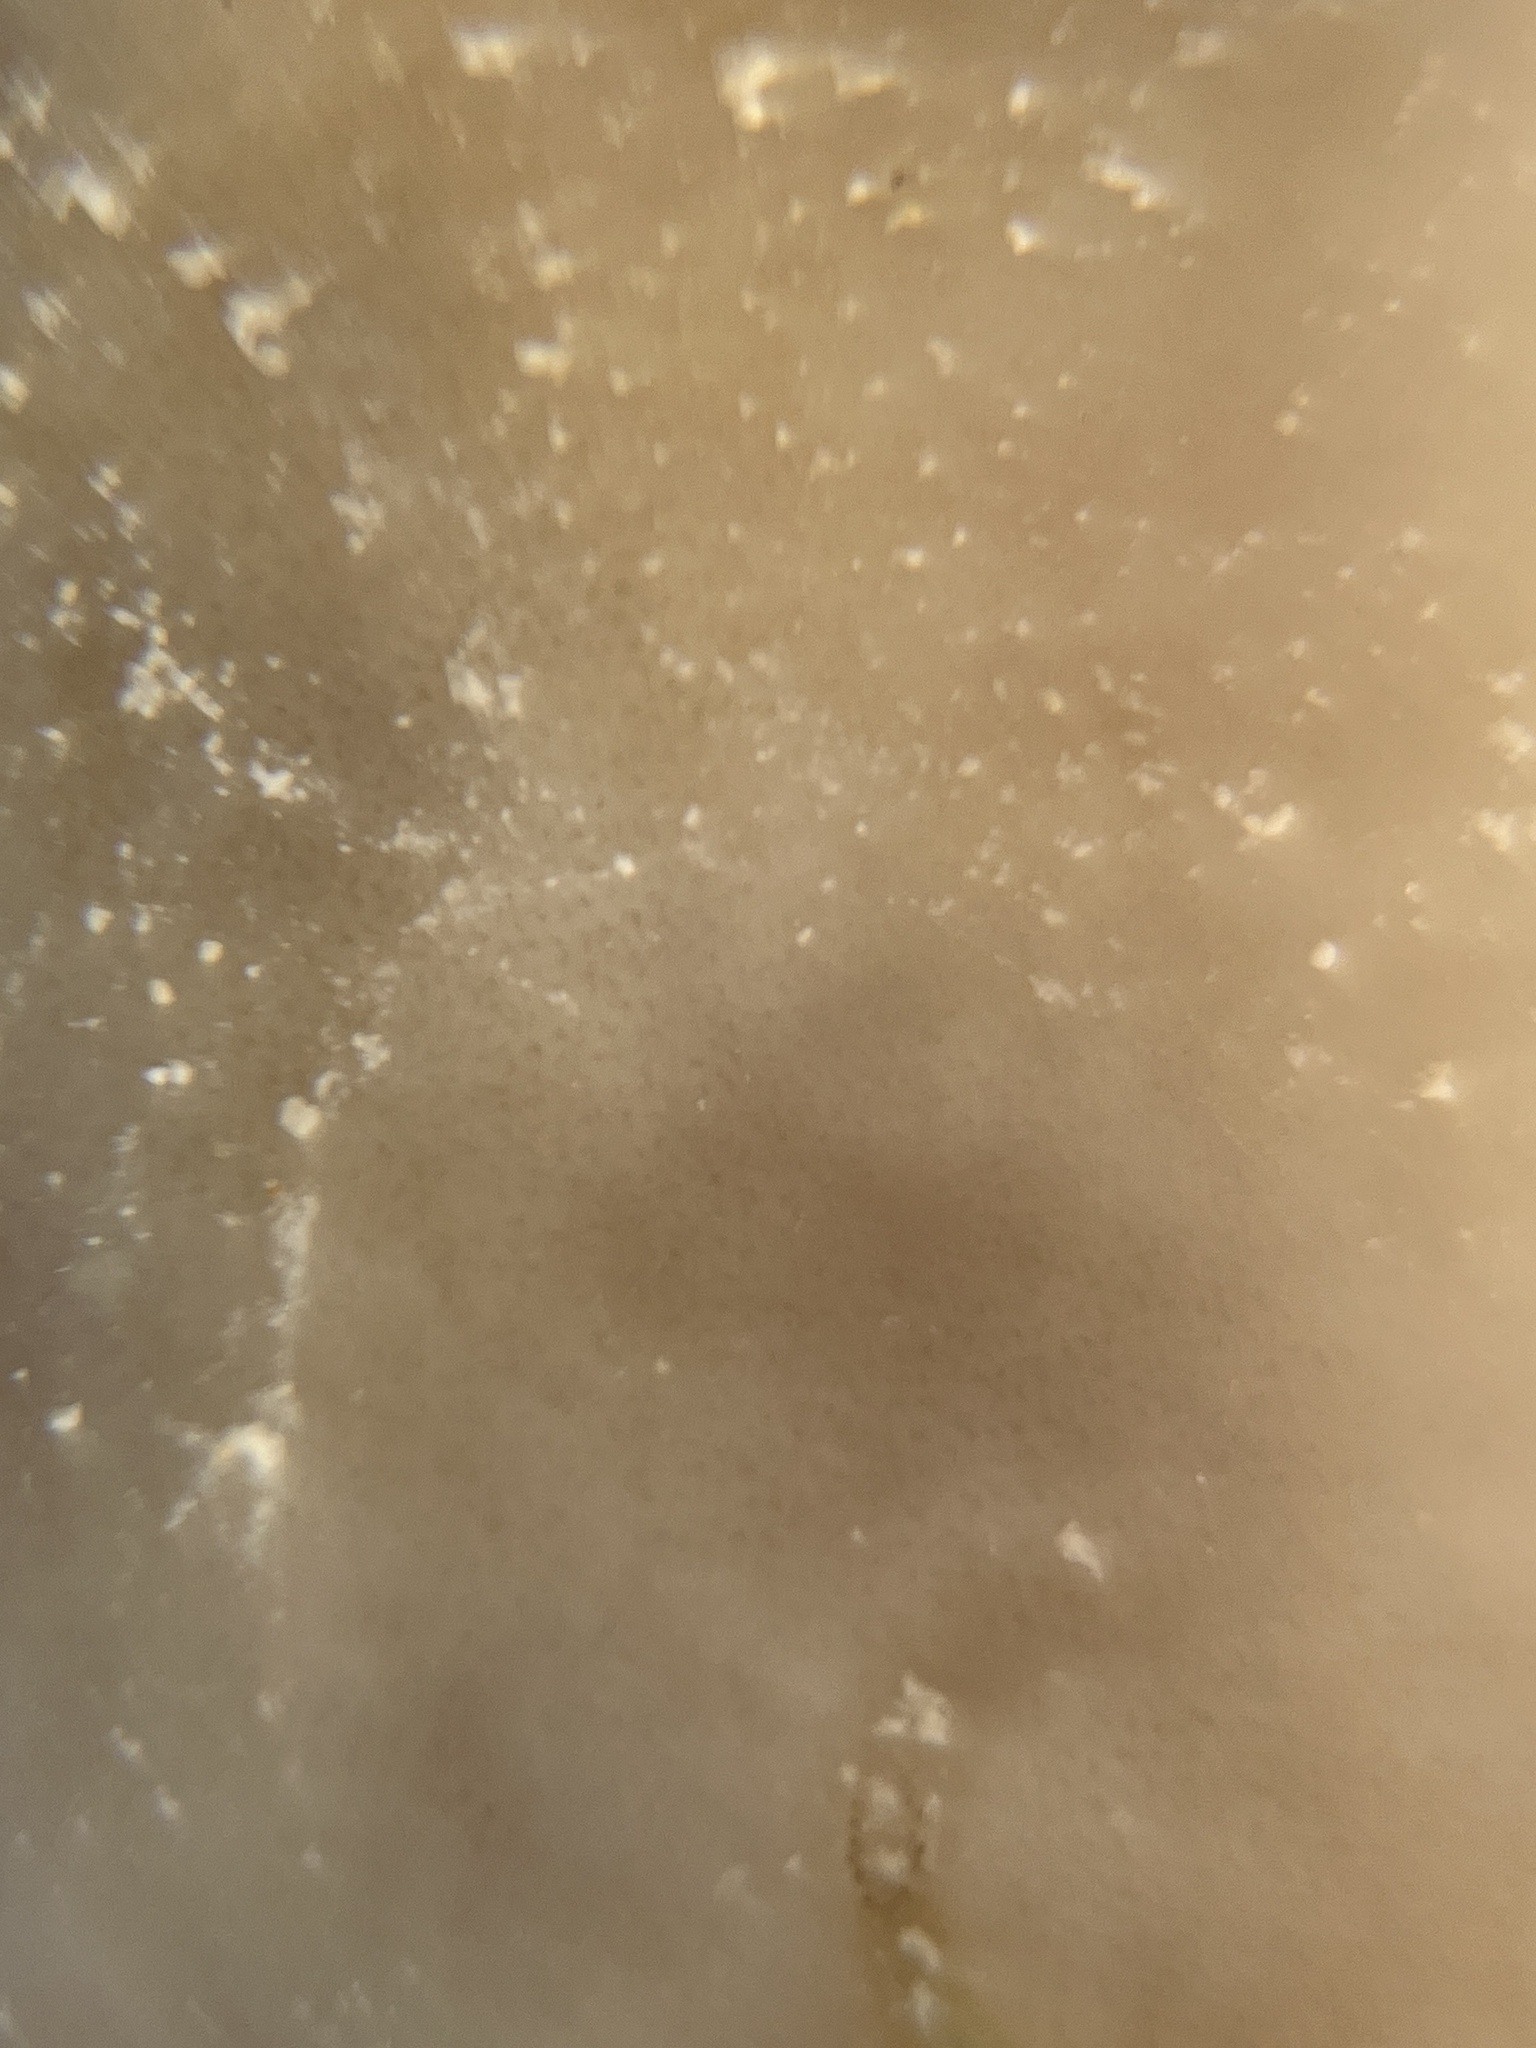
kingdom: Animalia
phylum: Porifera
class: Demospongiae
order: Chondrillida
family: Chondrillidae
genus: Chondrilla
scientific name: Chondrilla nucula
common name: Chicken liver sponge
